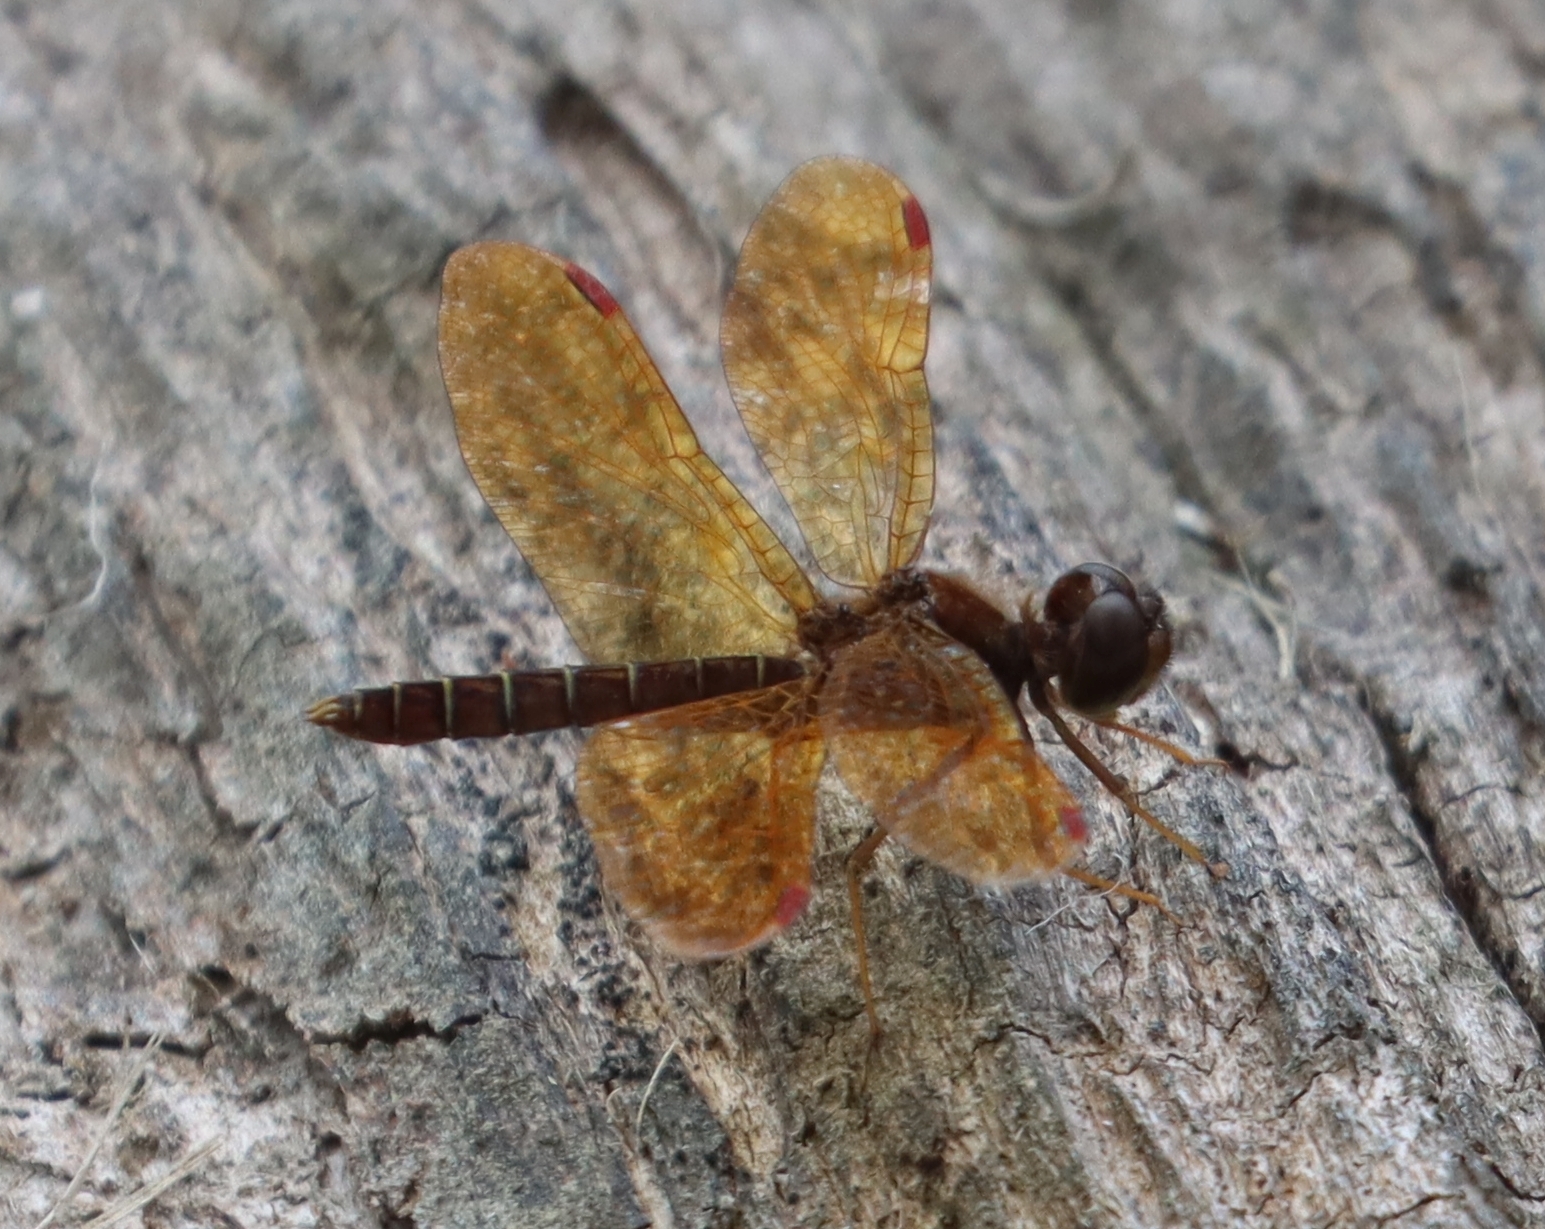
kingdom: Animalia
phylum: Arthropoda
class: Insecta
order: Odonata
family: Libellulidae
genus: Perithemis
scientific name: Perithemis tenera
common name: Eastern amberwing
